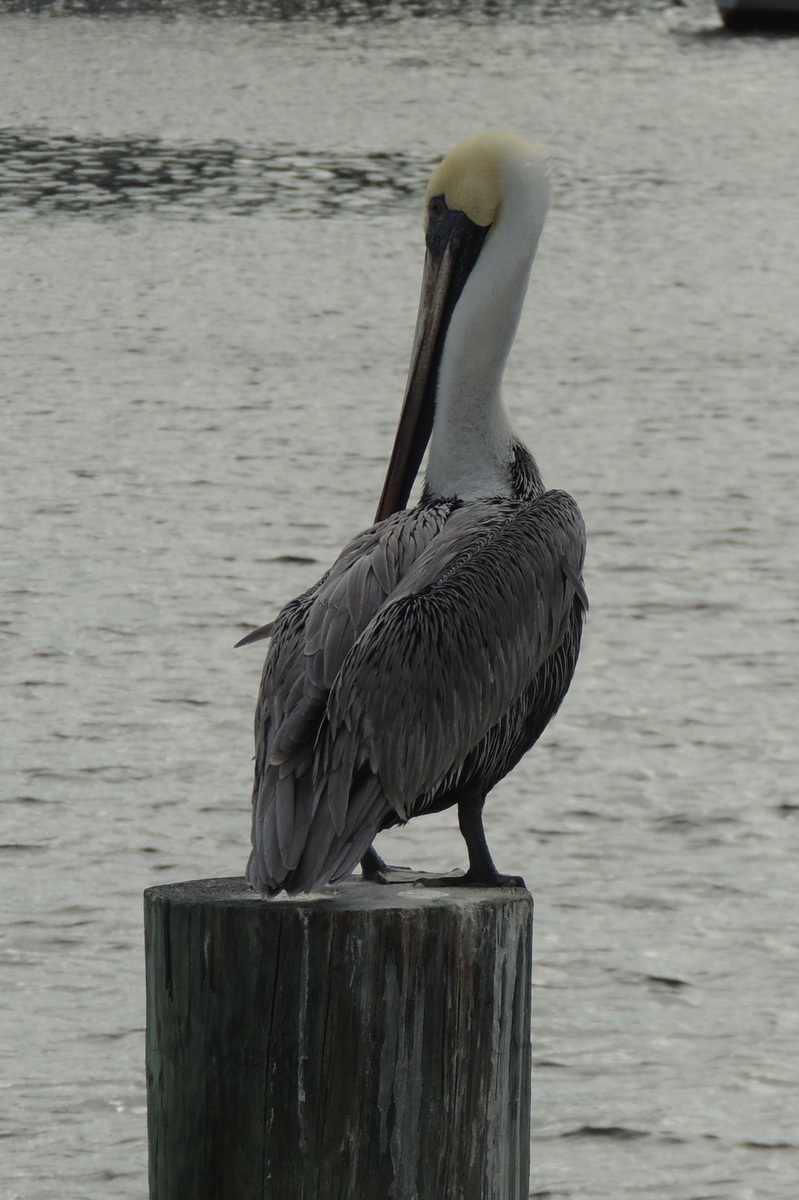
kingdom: Animalia
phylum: Chordata
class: Aves
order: Pelecaniformes
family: Pelecanidae
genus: Pelecanus
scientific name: Pelecanus occidentalis
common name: Brown pelican
